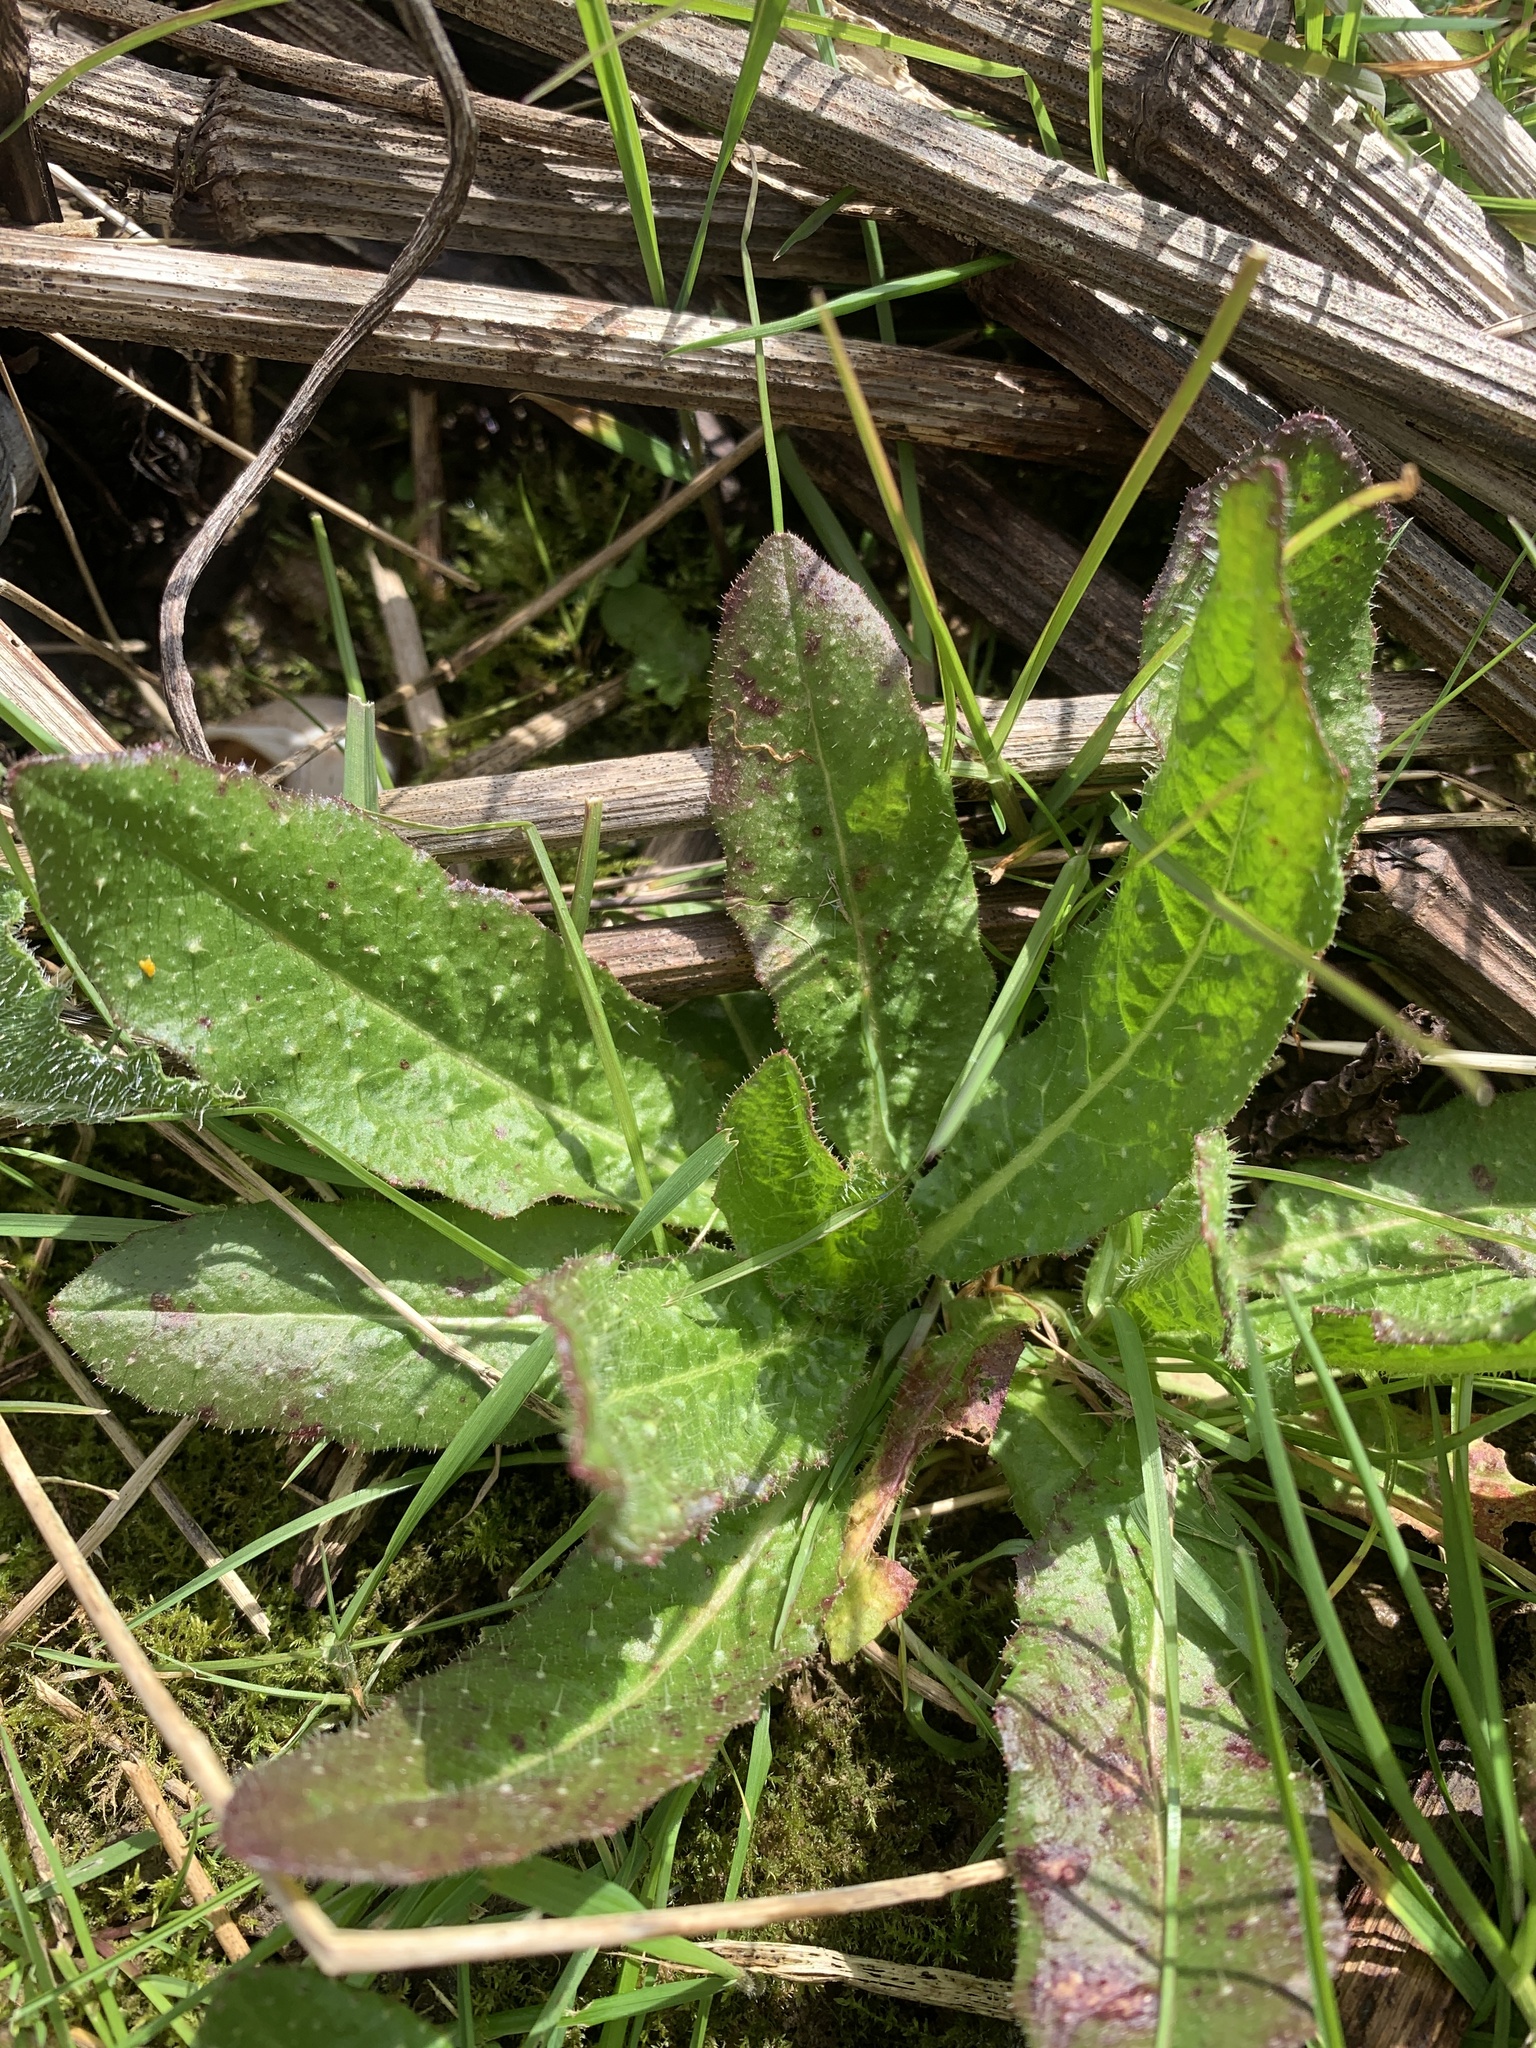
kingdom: Plantae
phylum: Tracheophyta
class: Magnoliopsida
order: Asterales
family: Asteraceae
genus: Helminthotheca
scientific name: Helminthotheca echioides
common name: Ox-tongue
